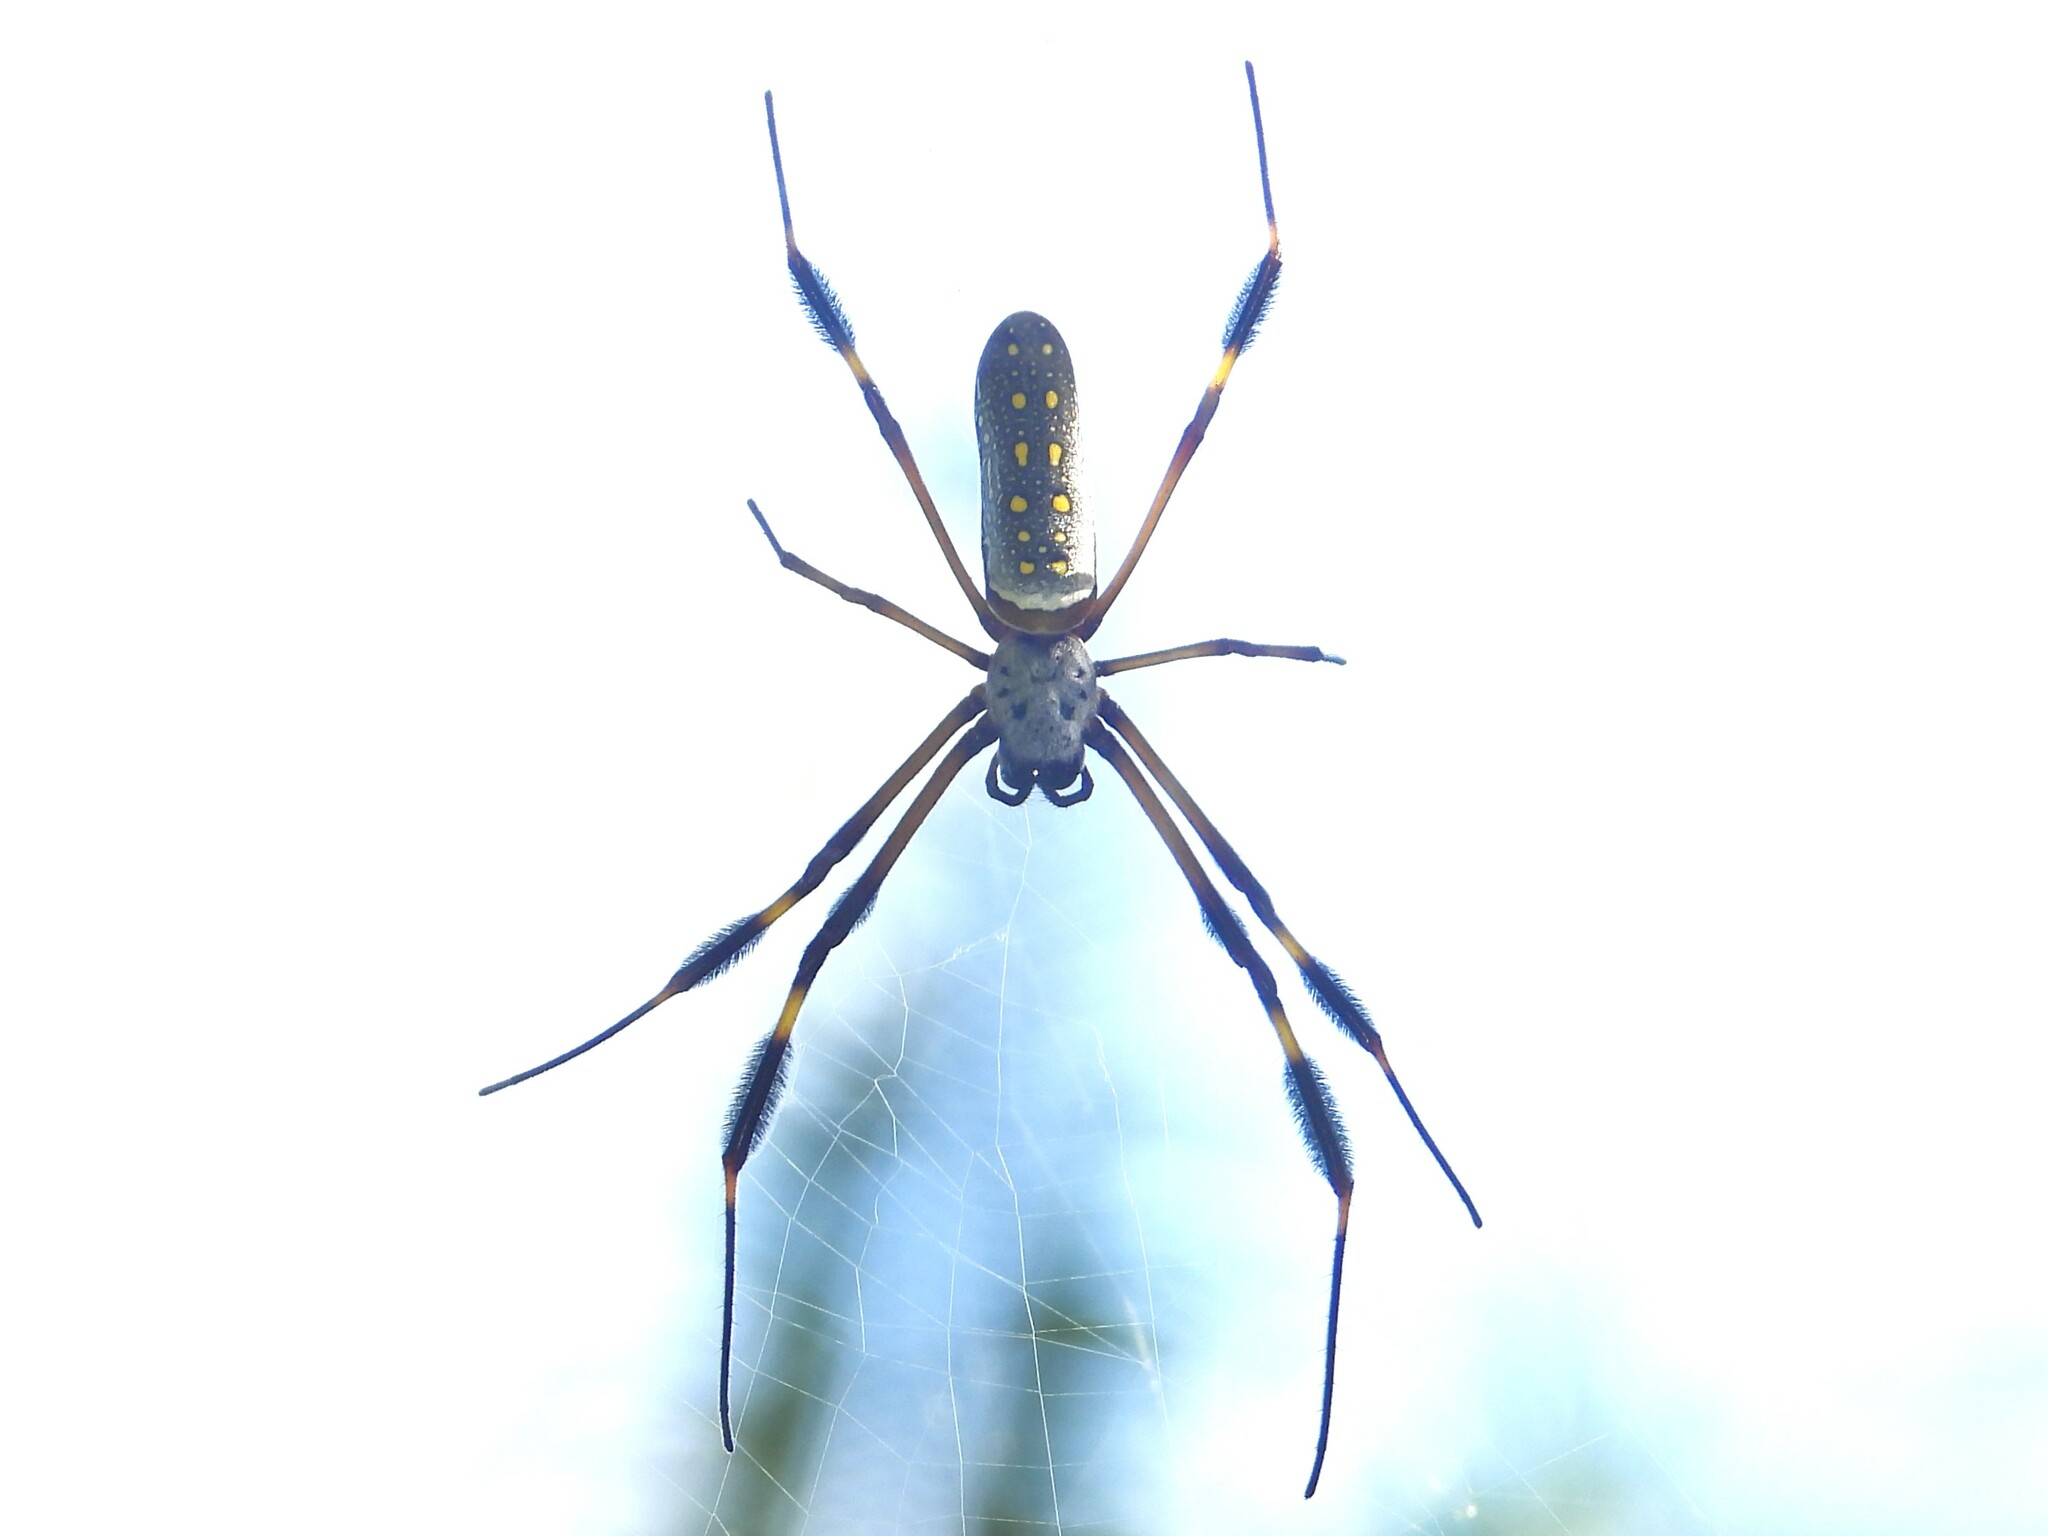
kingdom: Animalia
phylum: Arthropoda
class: Arachnida
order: Araneae
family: Araneidae
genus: Trichonephila
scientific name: Trichonephila clavipes
